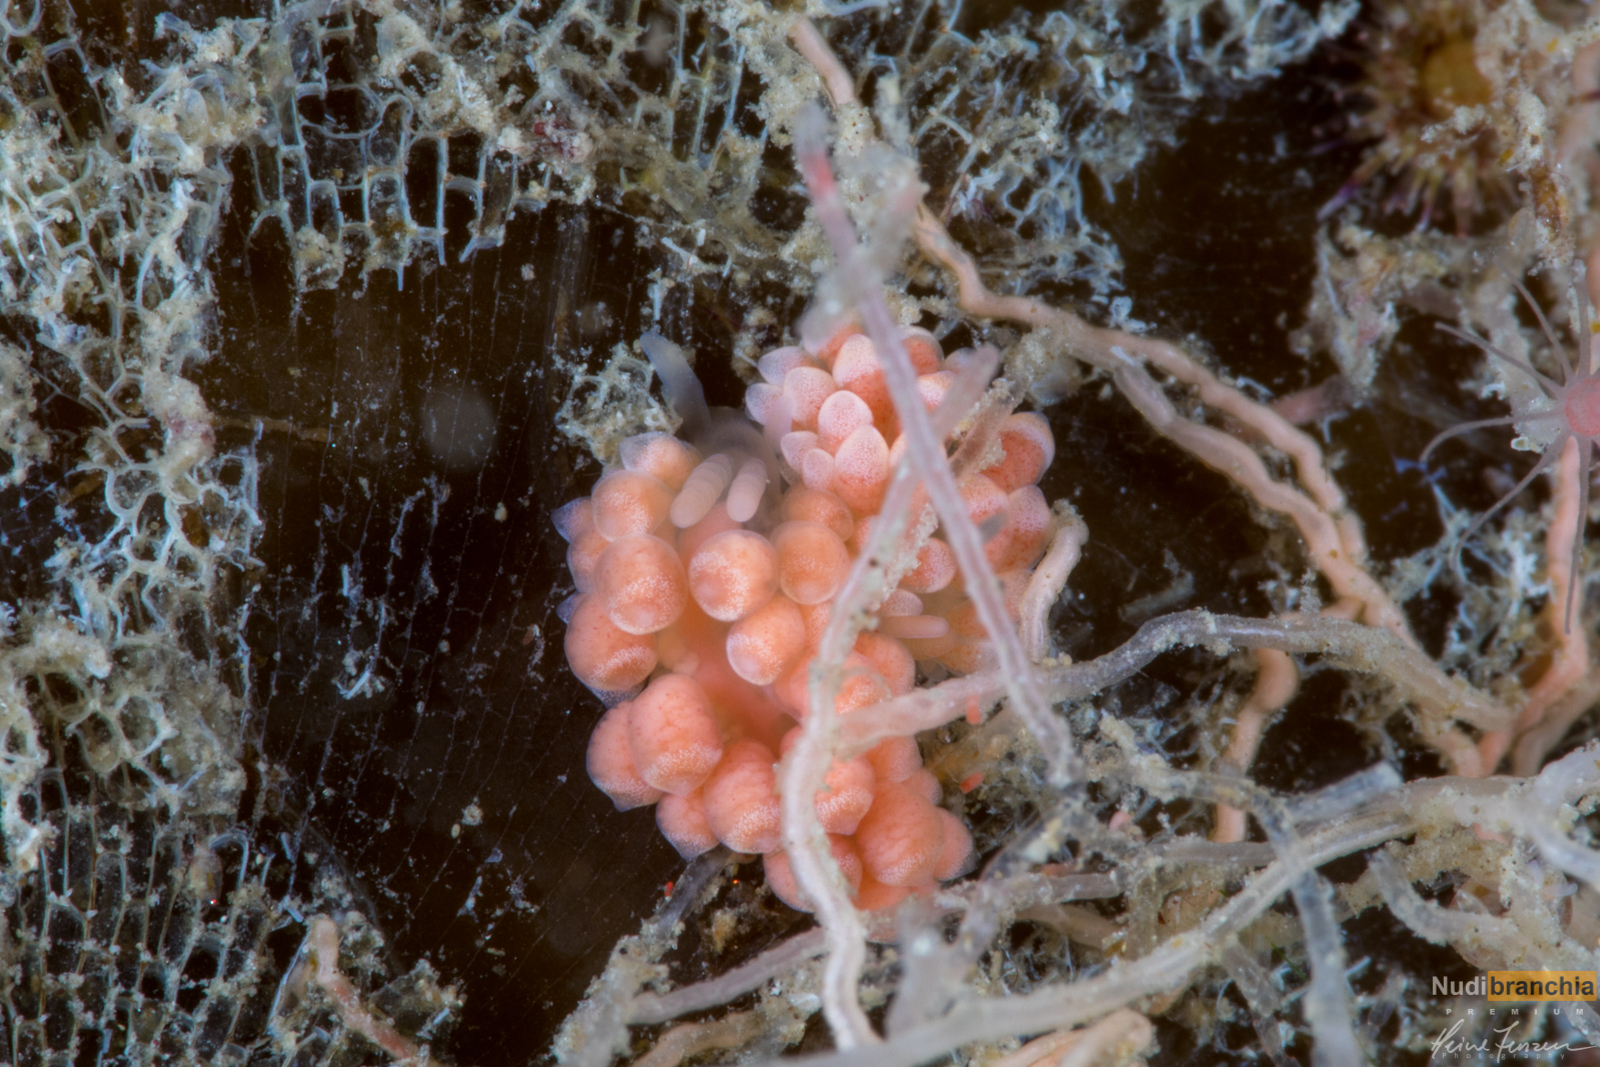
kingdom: Animalia
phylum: Mollusca
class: Gastropoda
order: Nudibranchia
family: Trinchesiidae
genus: Catriona
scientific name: Catriona aurantia
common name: Corange-tip cuthona
